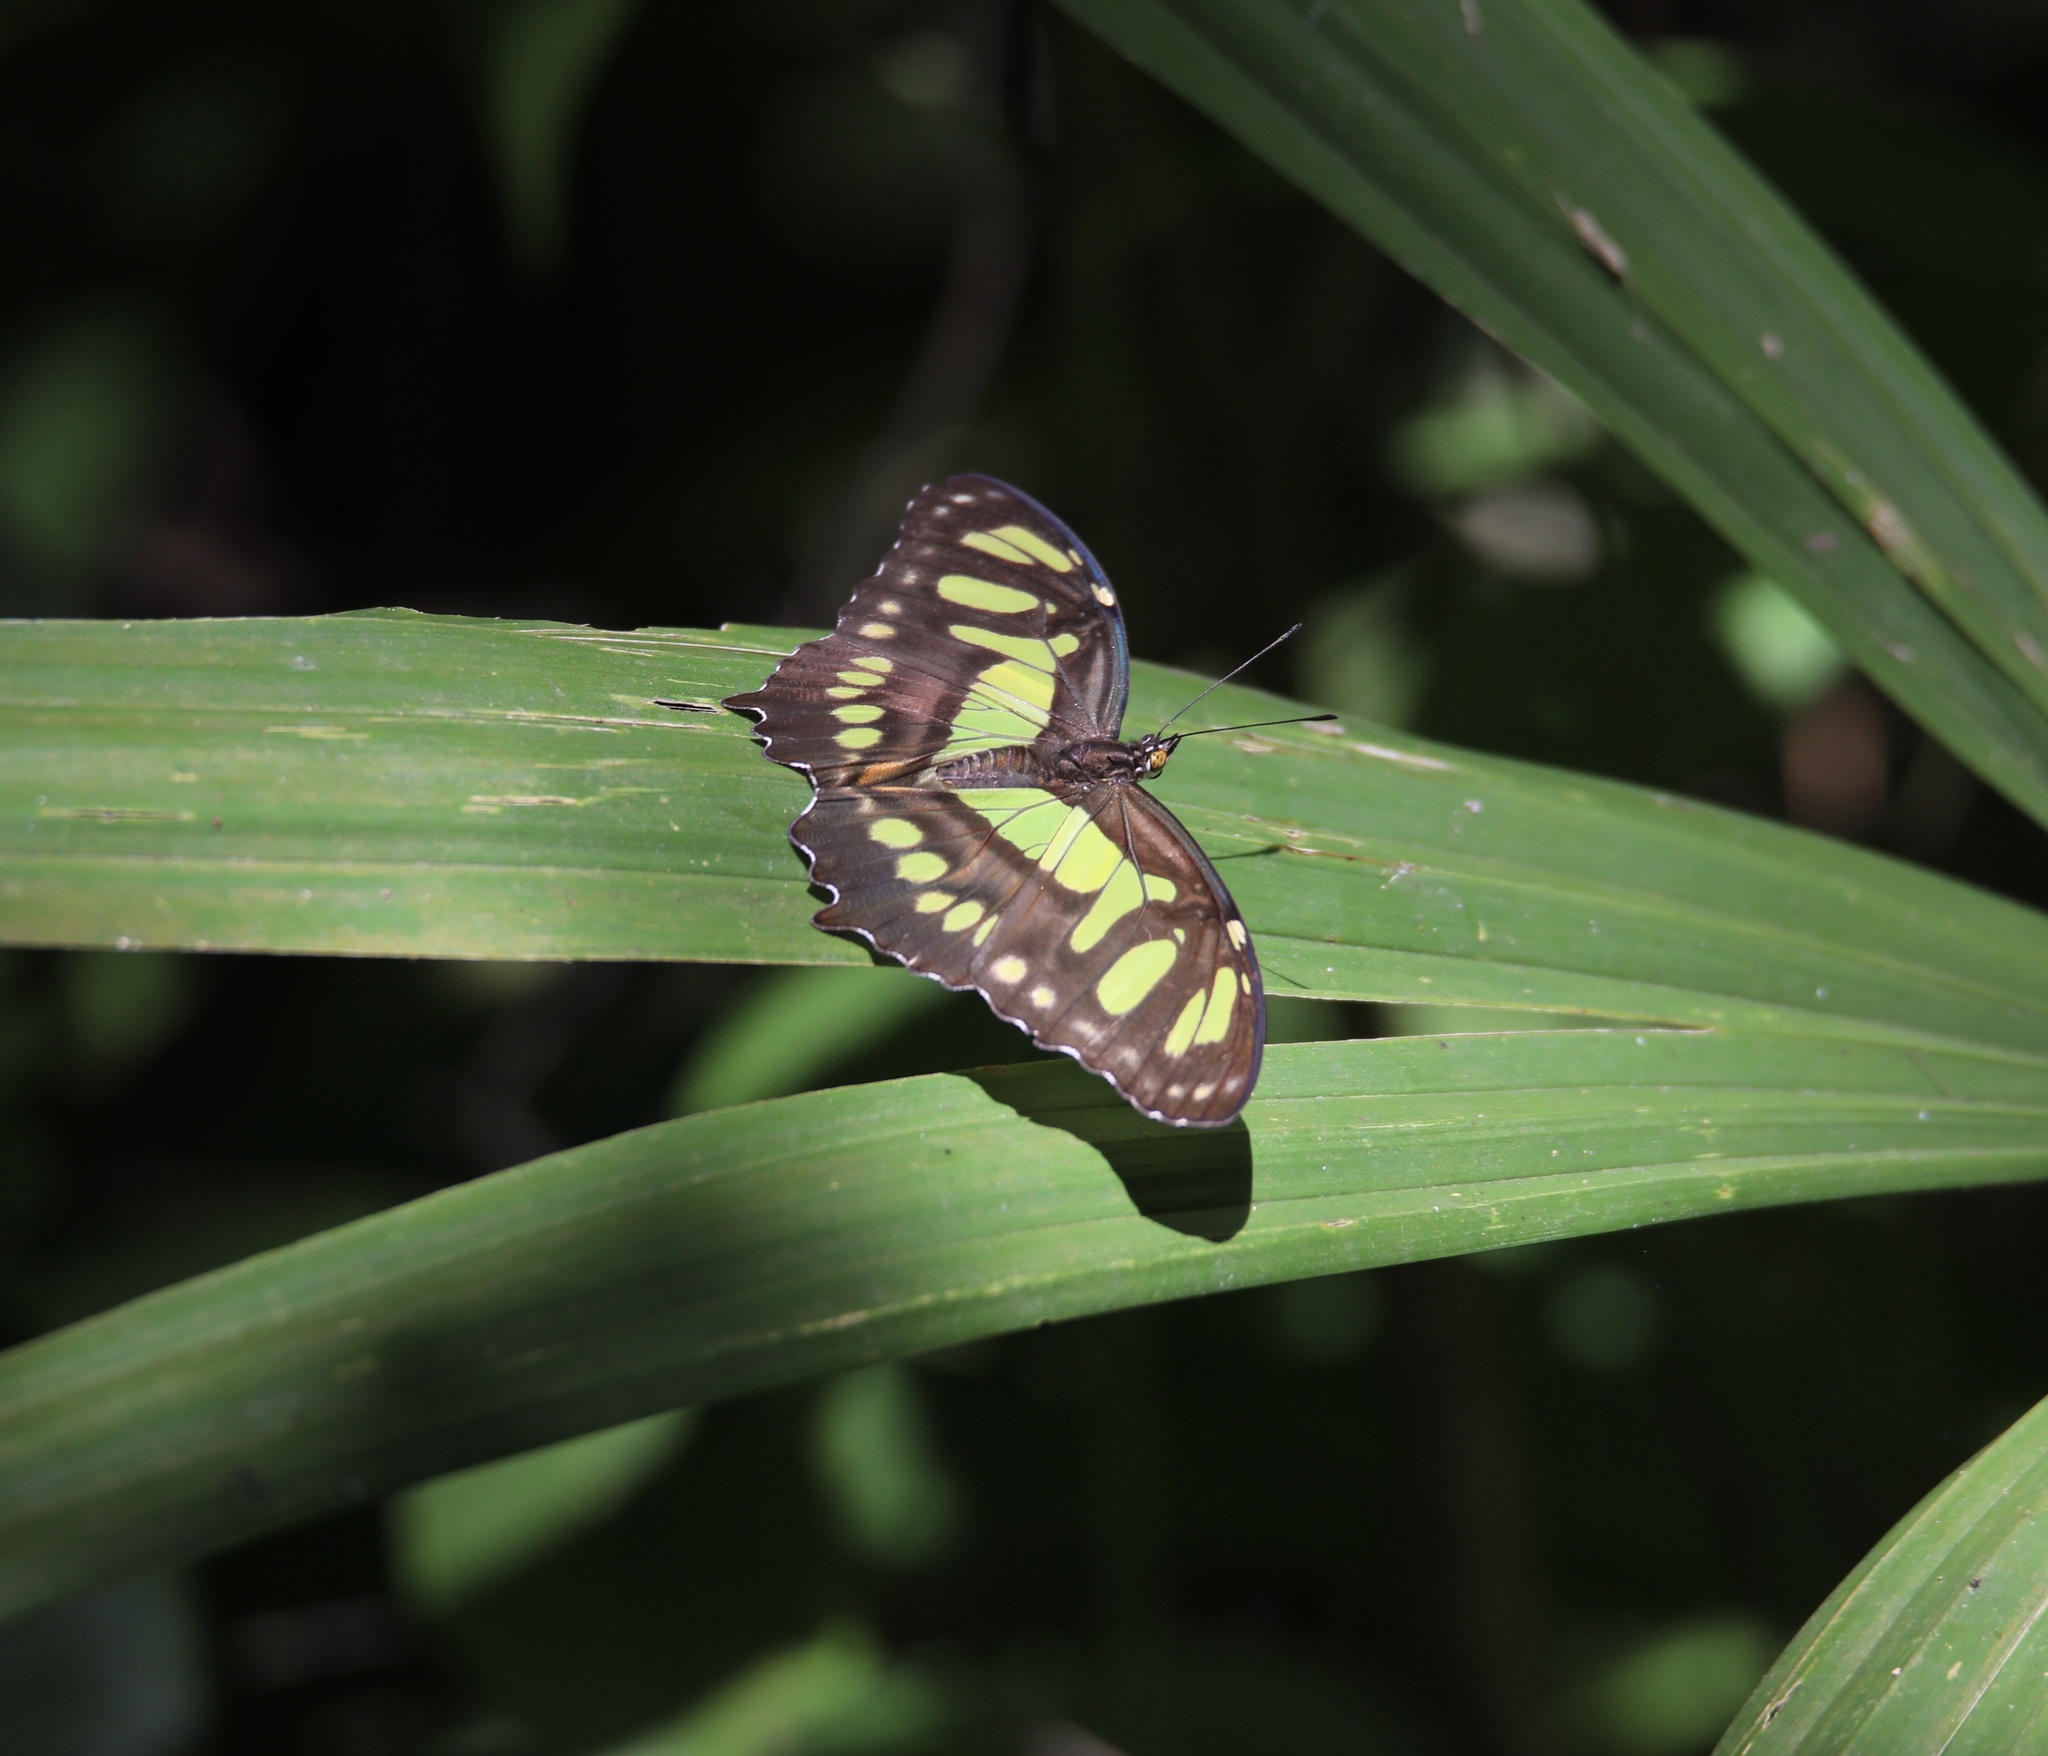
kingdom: Animalia
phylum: Arthropoda
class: Insecta
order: Lepidoptera
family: Nymphalidae
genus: Siproeta
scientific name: Siproeta stelenes
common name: Malachite
